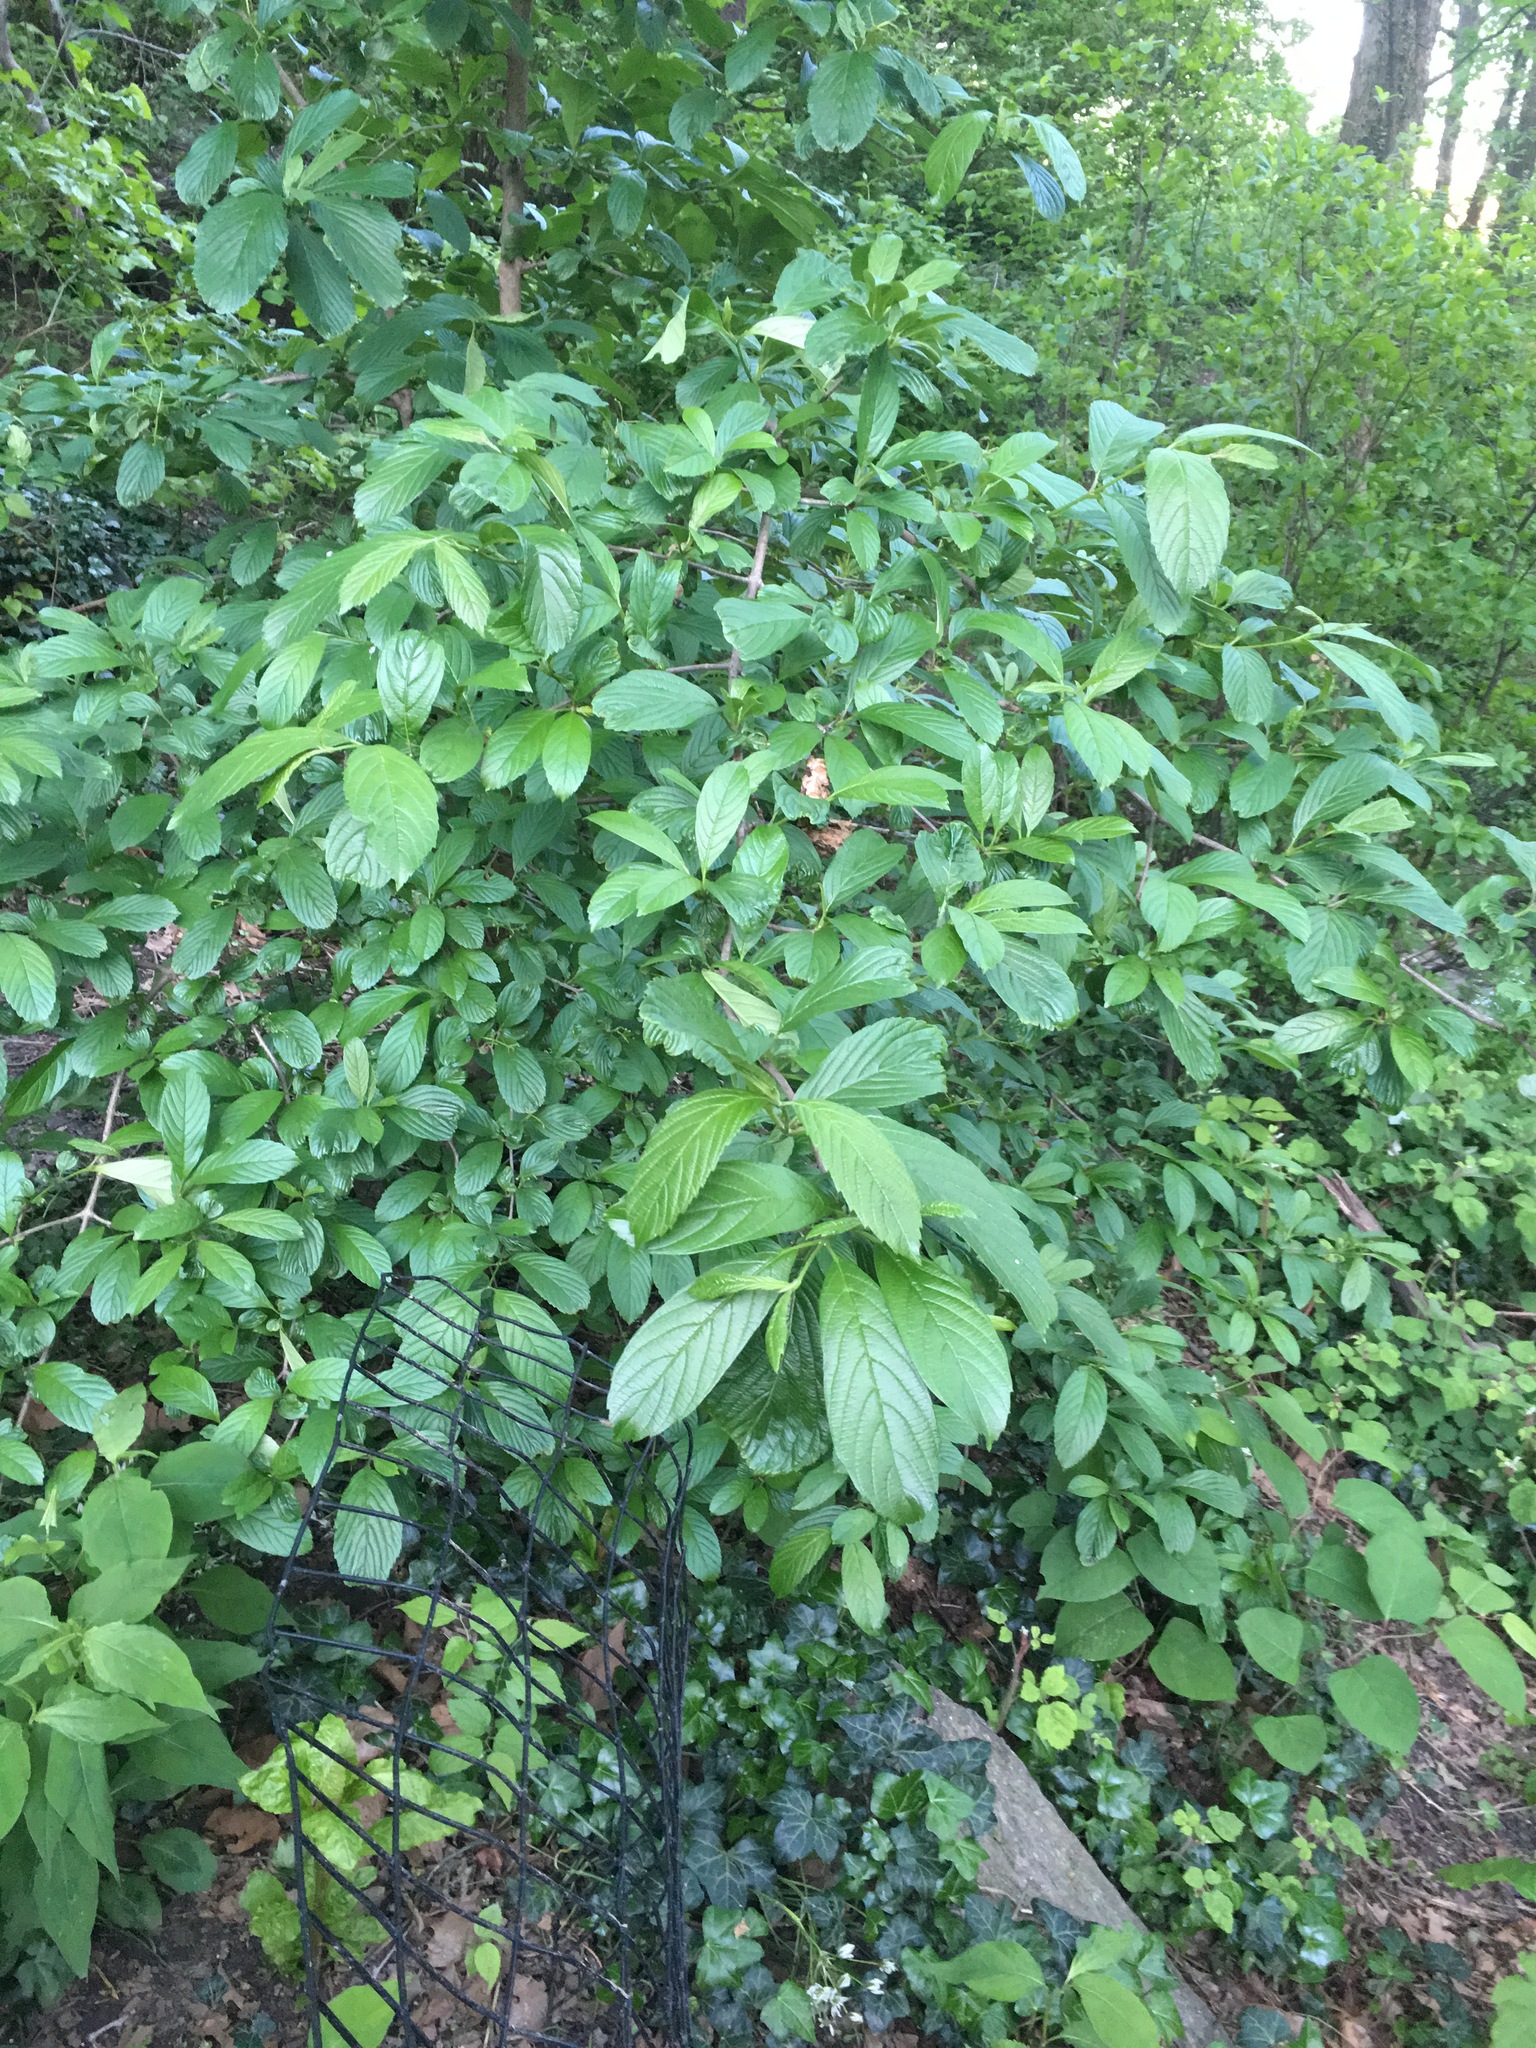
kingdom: Plantae
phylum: Tracheophyta
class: Magnoliopsida
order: Dipsacales
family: Viburnaceae
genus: Viburnum
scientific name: Viburnum sieboldii
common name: Siebold's arrowwood
